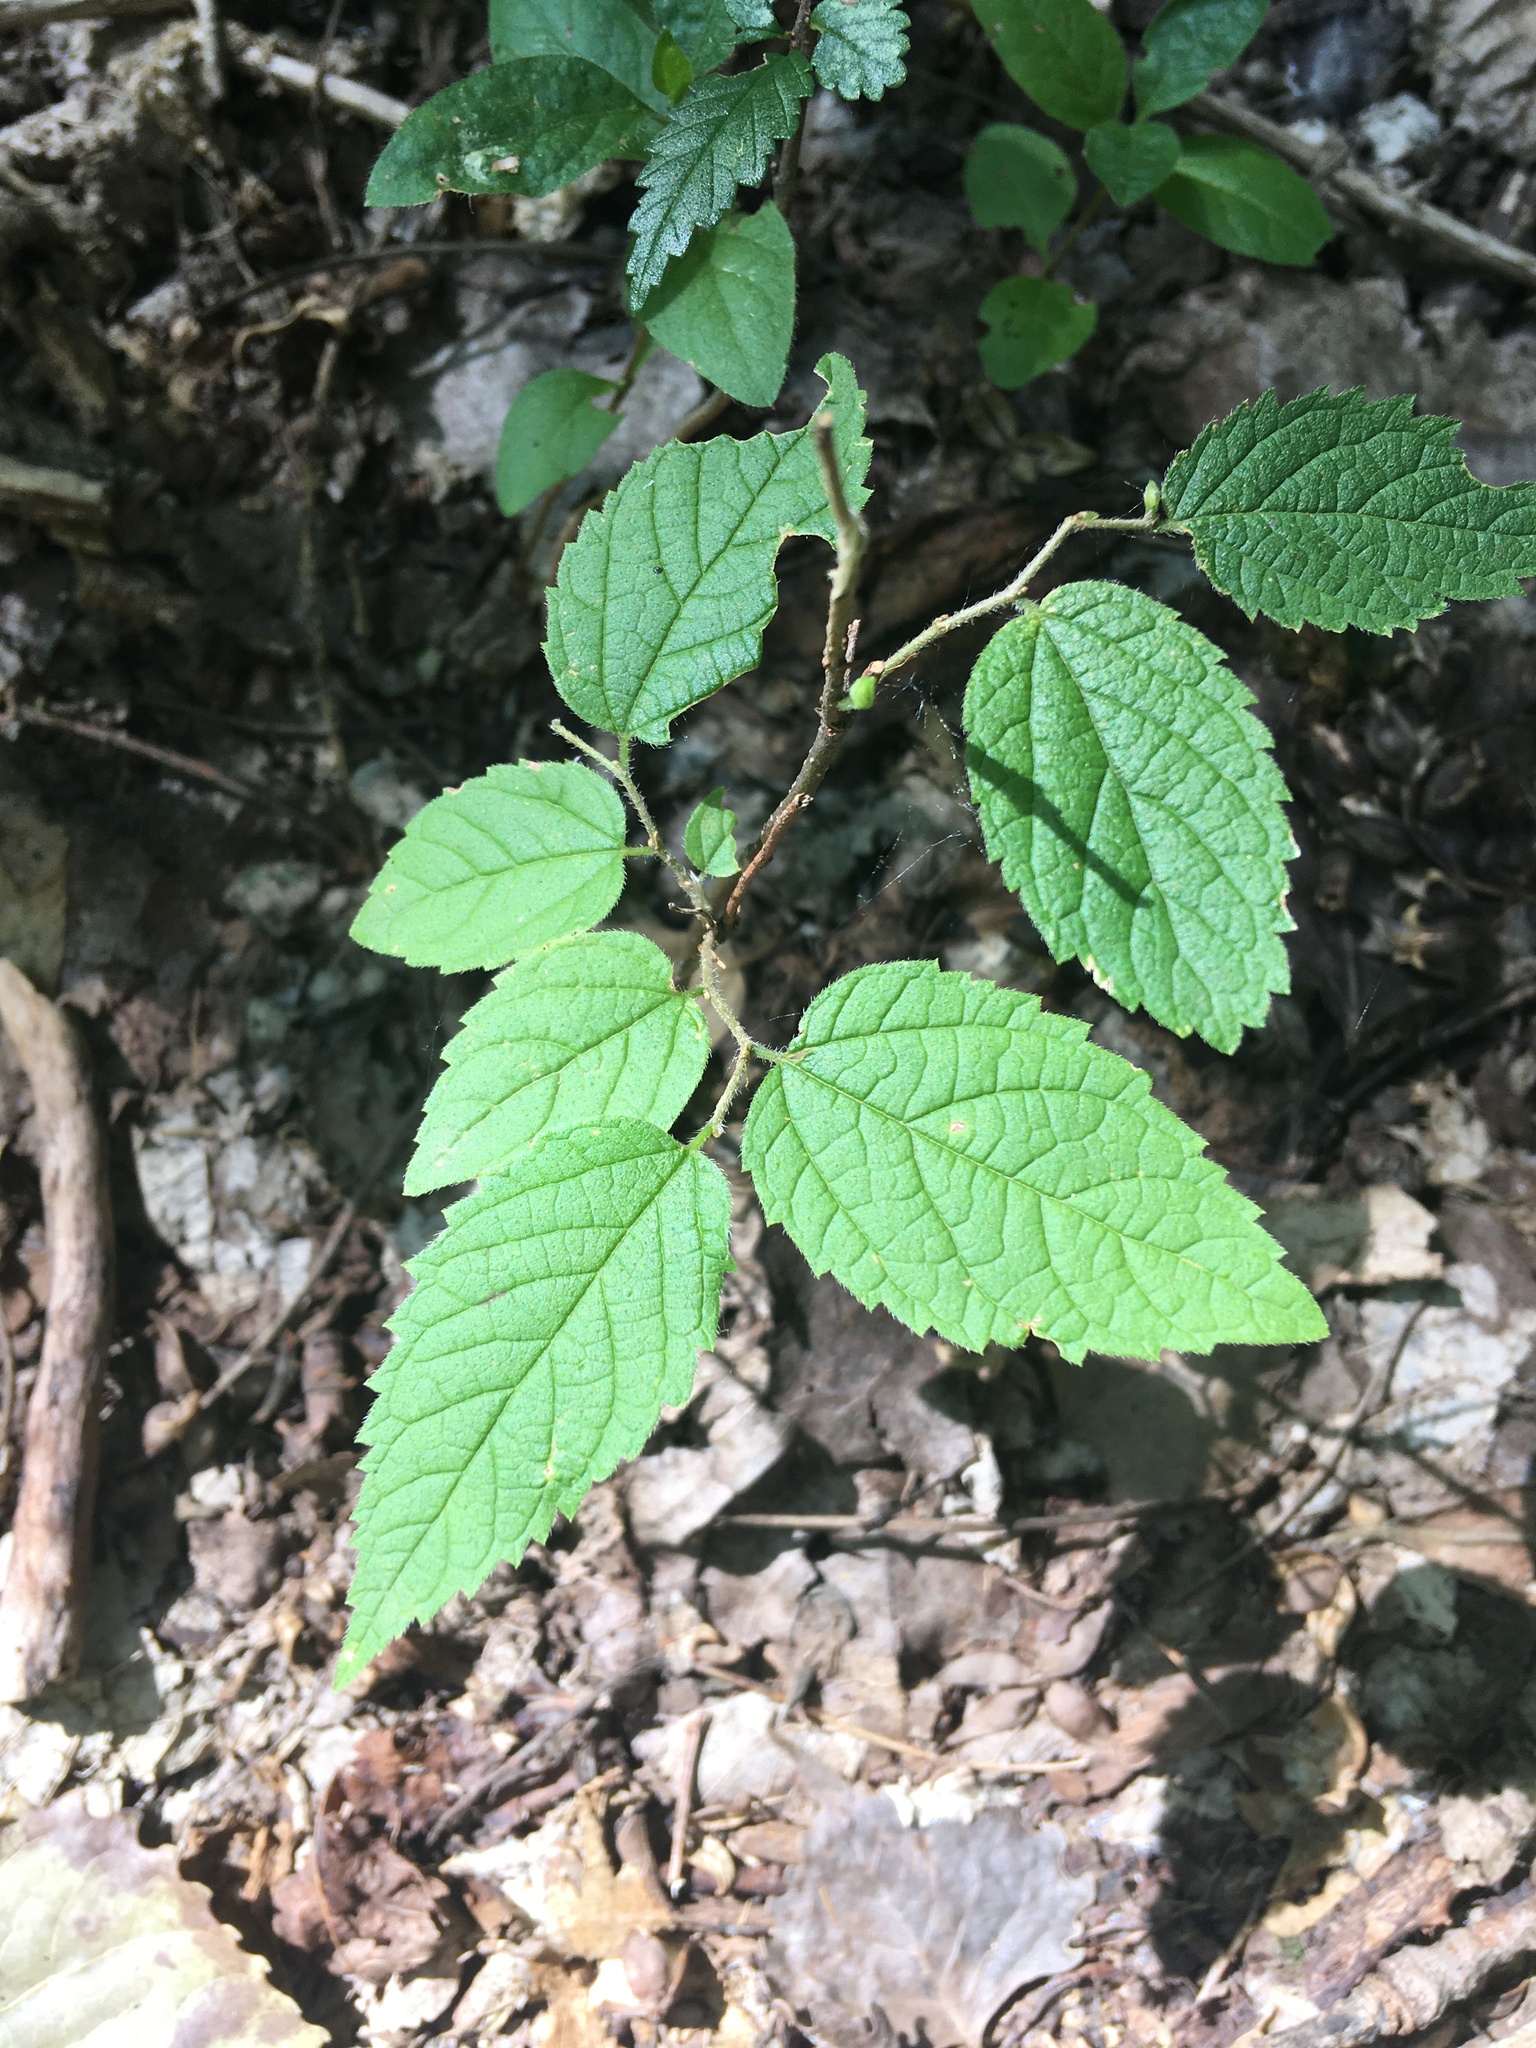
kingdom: Plantae
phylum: Tracheophyta
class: Magnoliopsida
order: Rosales
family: Cannabaceae
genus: Celtis
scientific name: Celtis occidentalis
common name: Common hackberry
